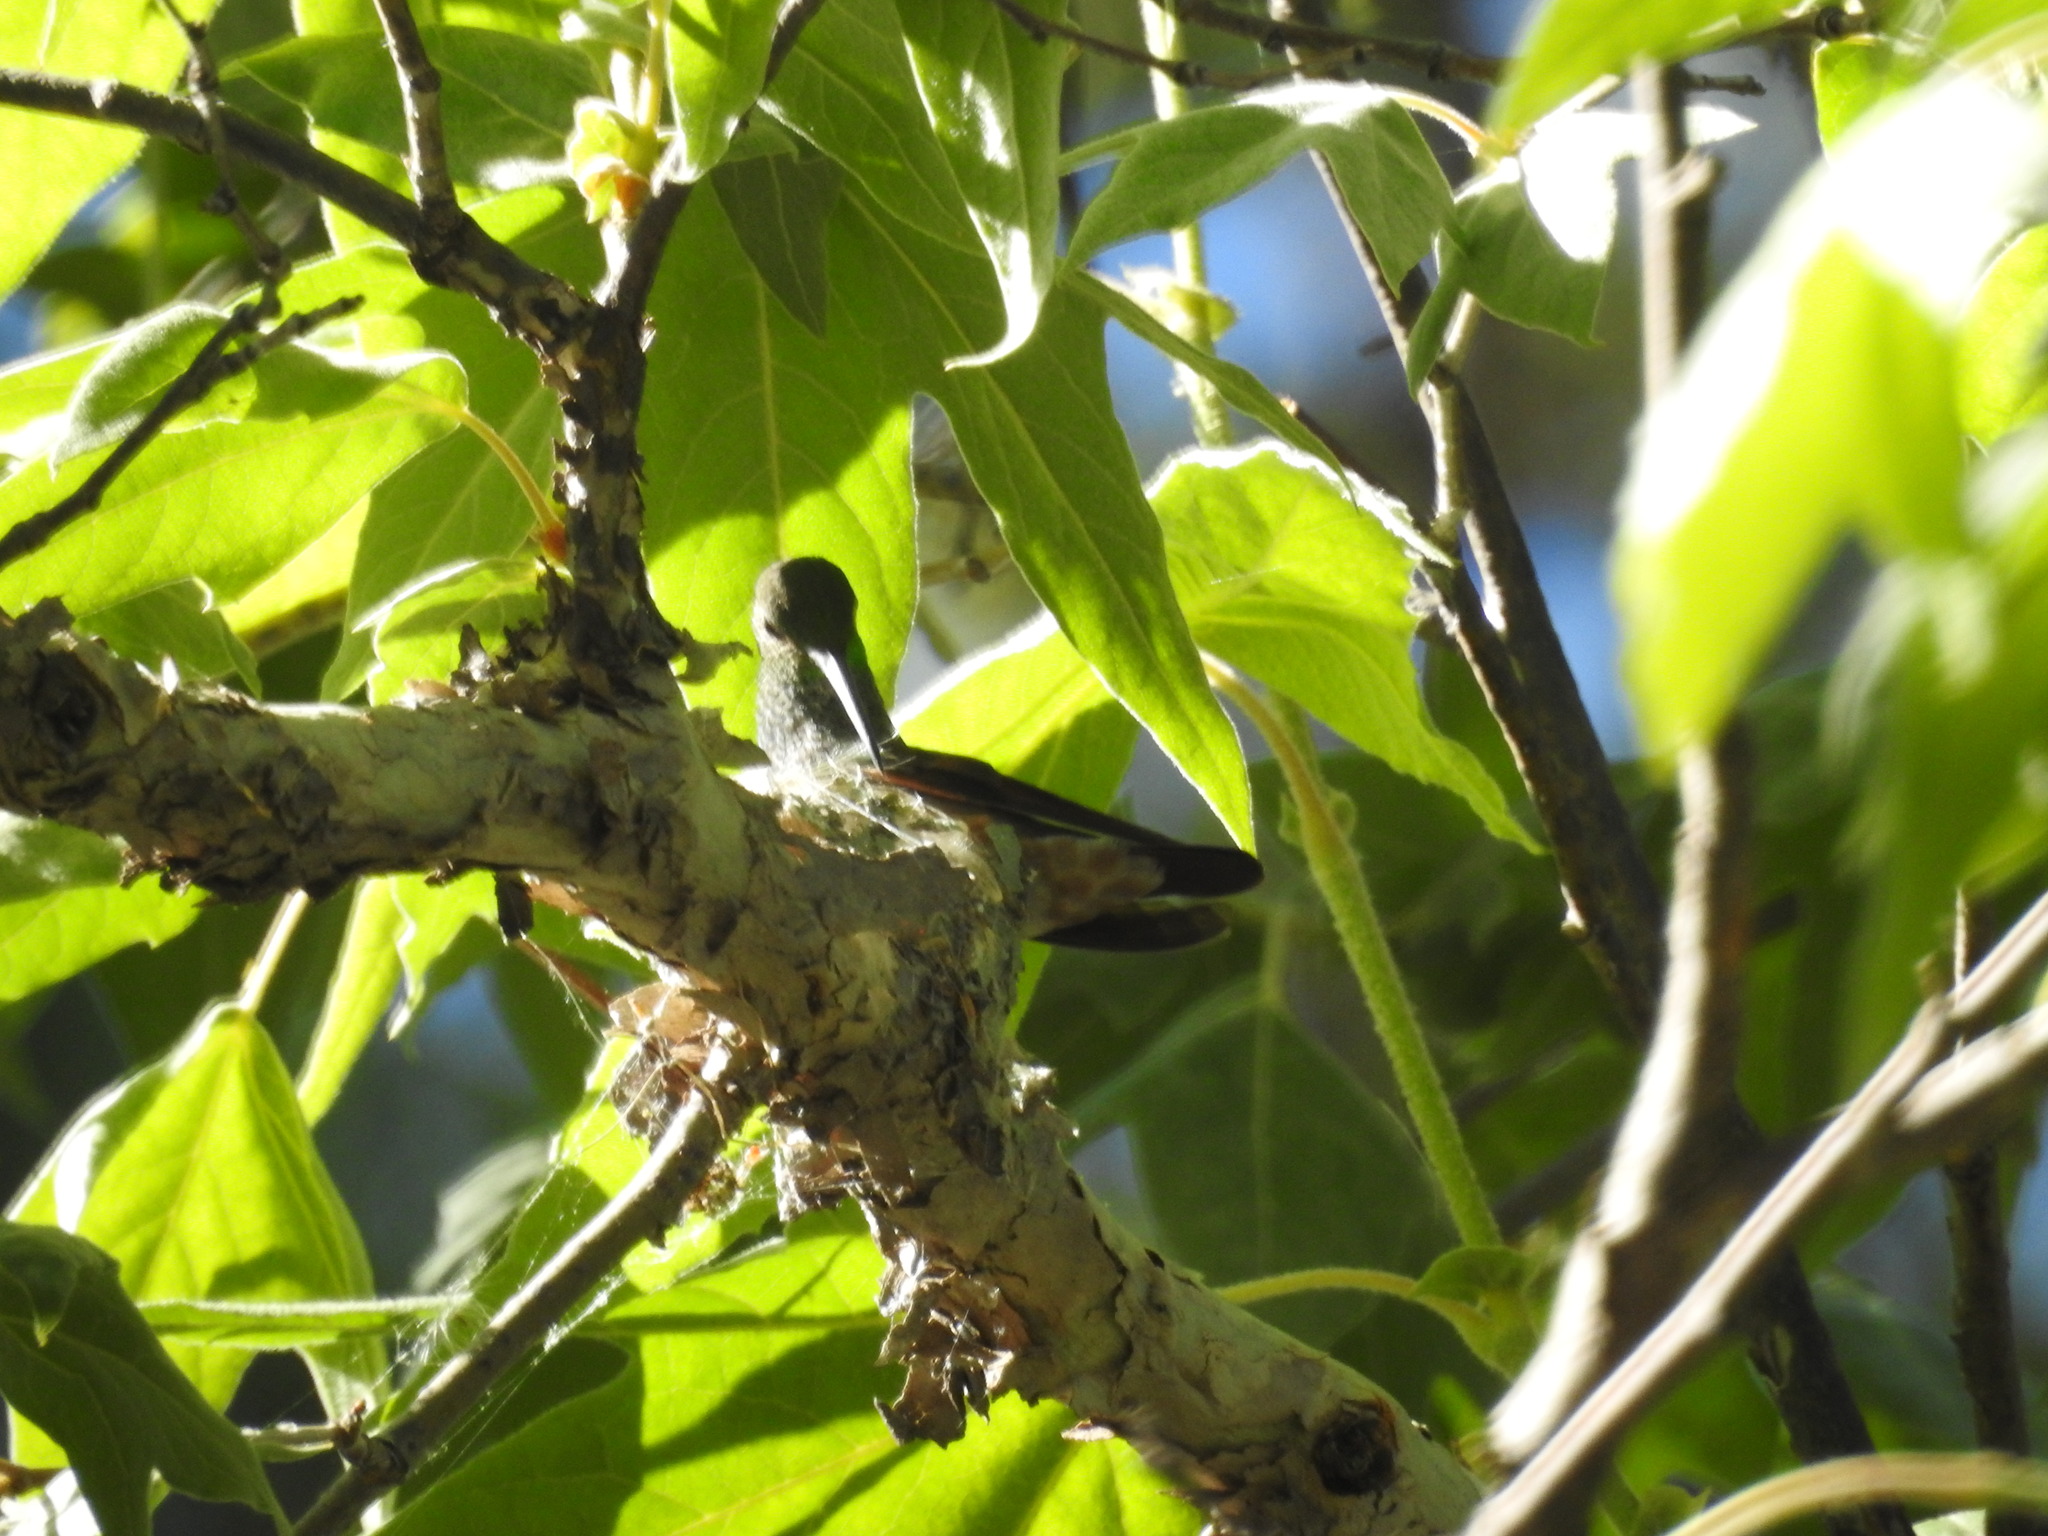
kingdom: Animalia
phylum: Chordata
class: Aves
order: Apodiformes
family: Trochilidae
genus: Saucerottia
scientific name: Saucerottia beryllina
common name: Berylline hummingbird
